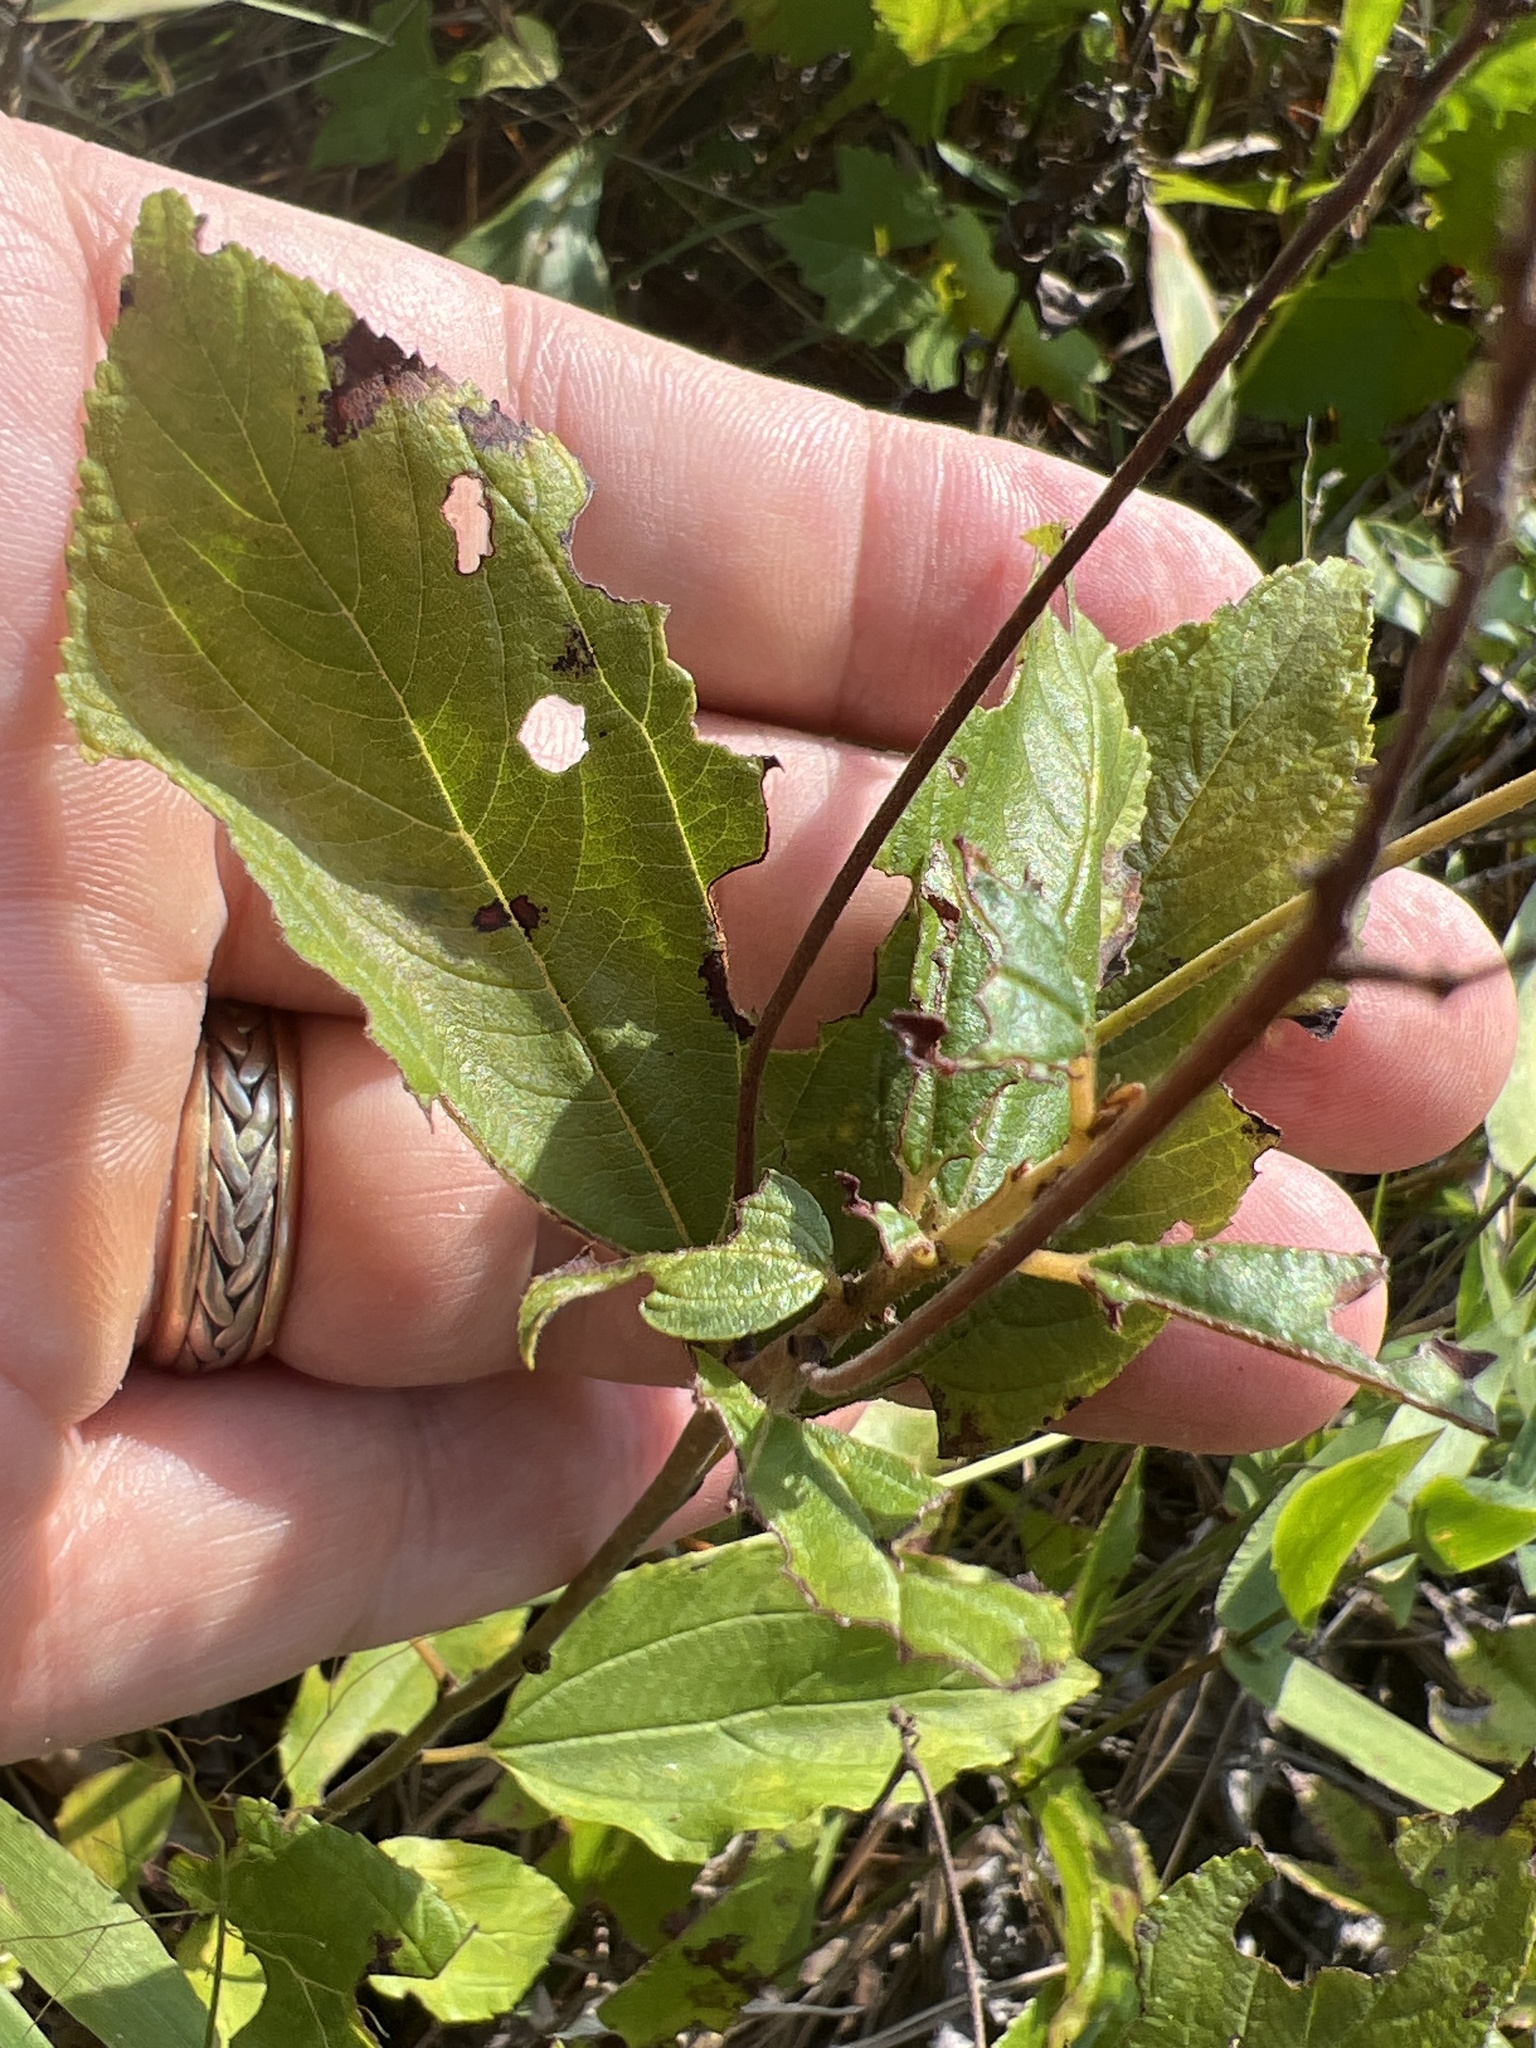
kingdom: Plantae
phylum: Tracheophyta
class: Magnoliopsida
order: Rosales
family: Rhamnaceae
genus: Ceanothus
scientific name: Ceanothus americanus
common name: Redroot
